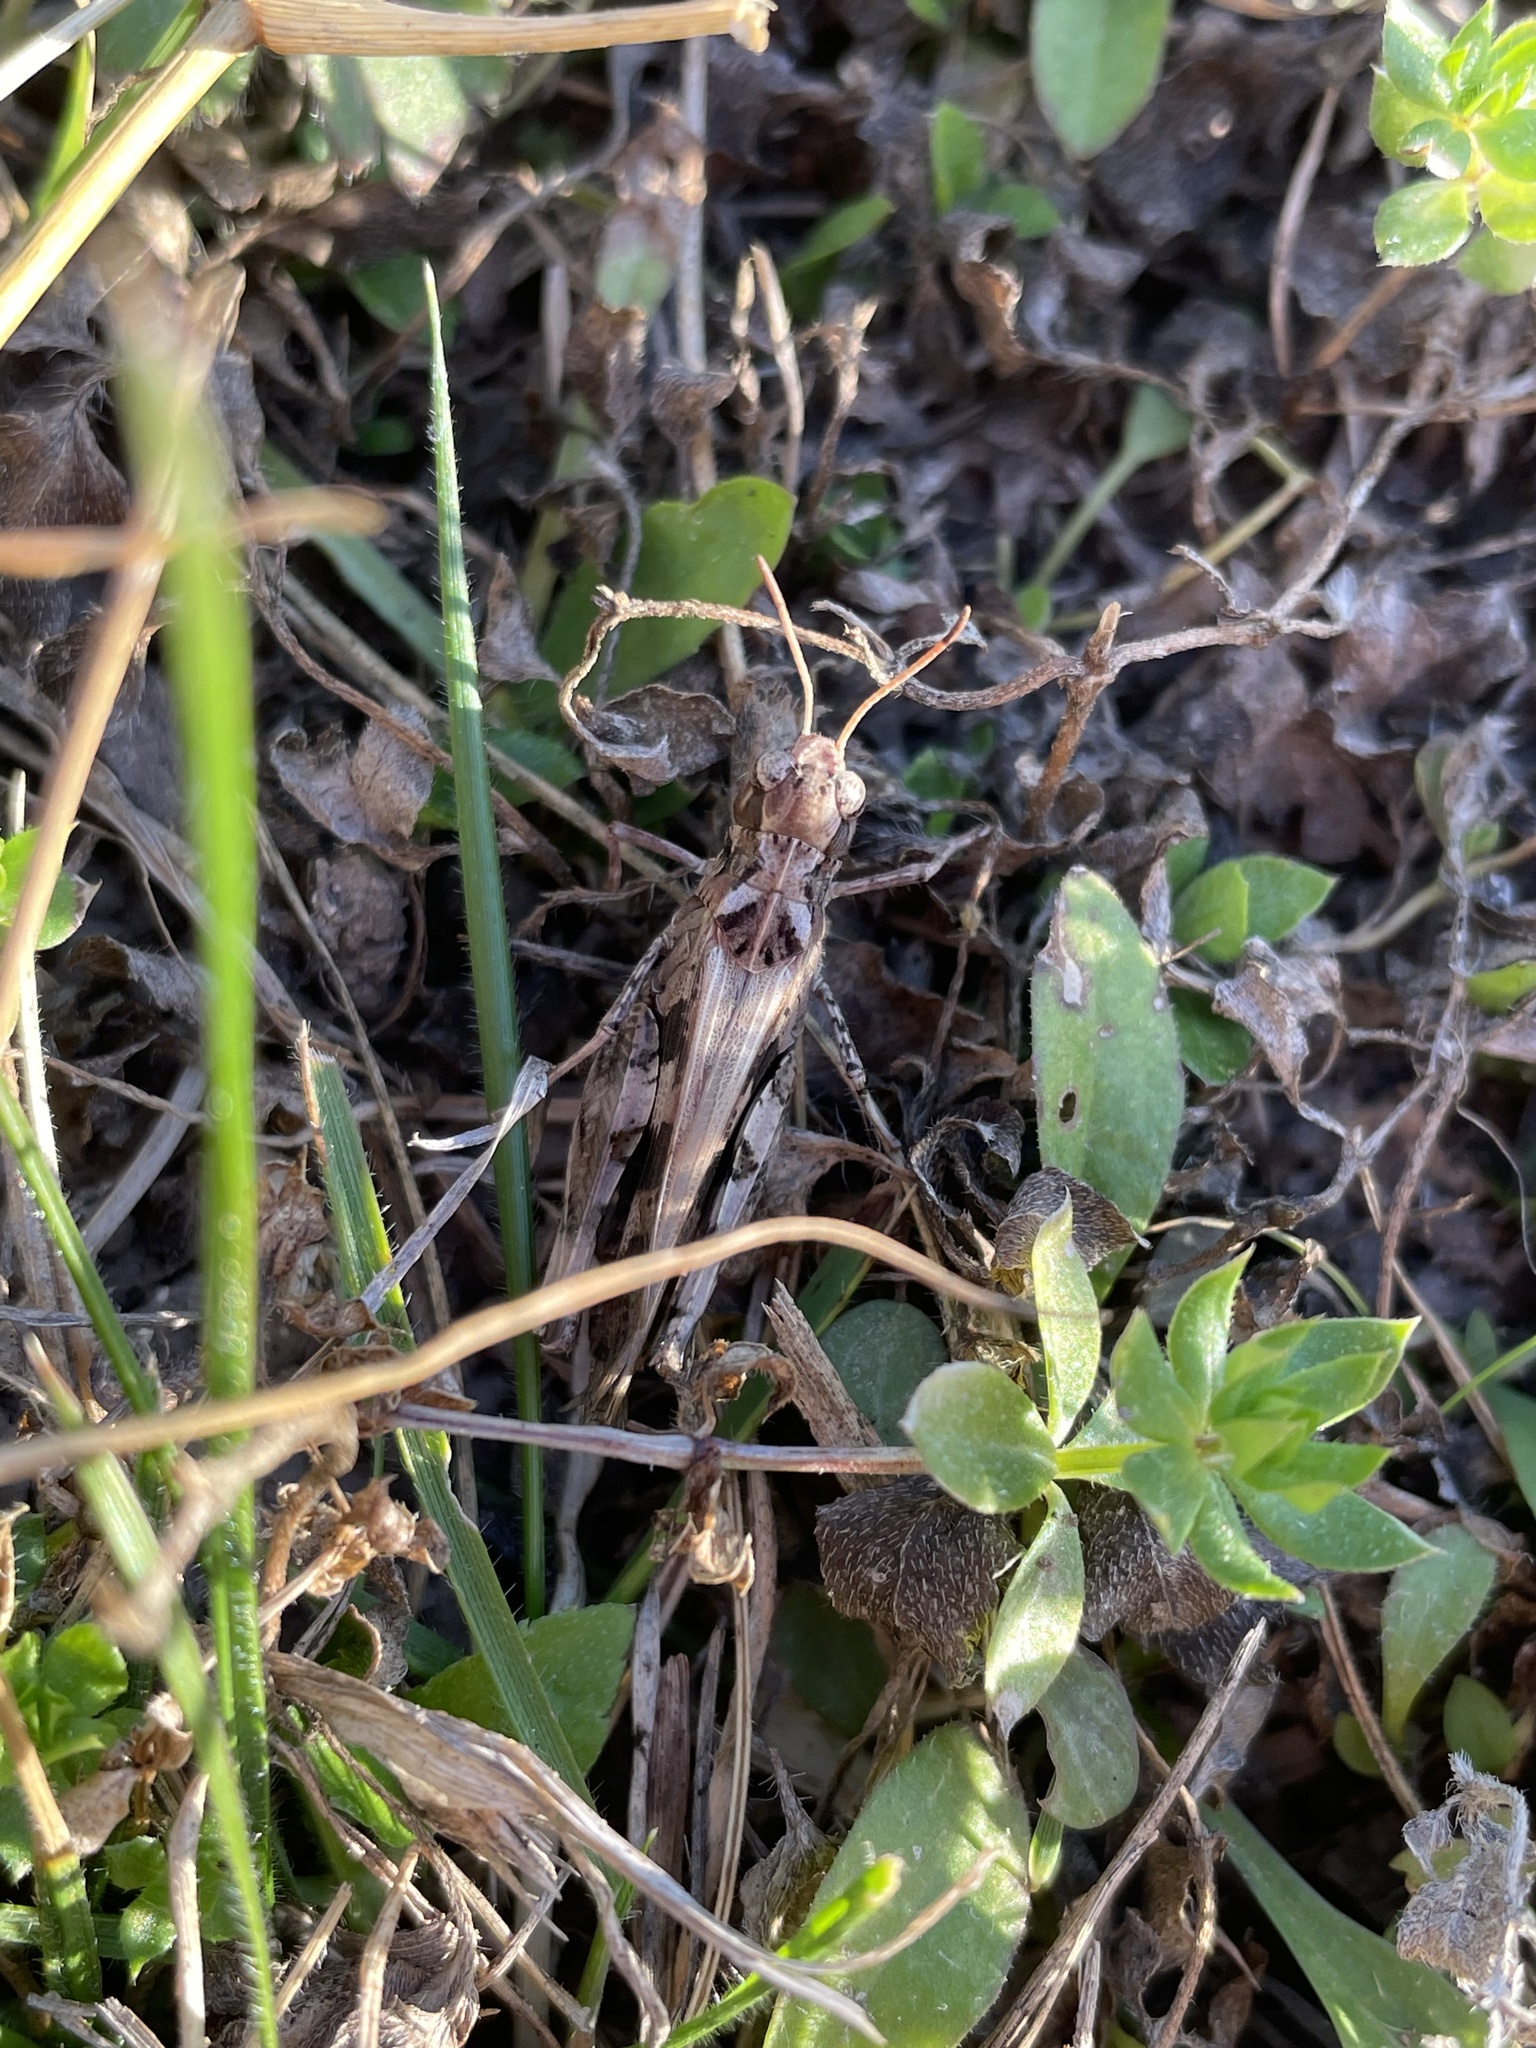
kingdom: Animalia
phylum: Arthropoda
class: Insecta
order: Orthoptera
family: Acrididae
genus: Encoptolophus
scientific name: Encoptolophus costalis
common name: Dusky grasshopper
